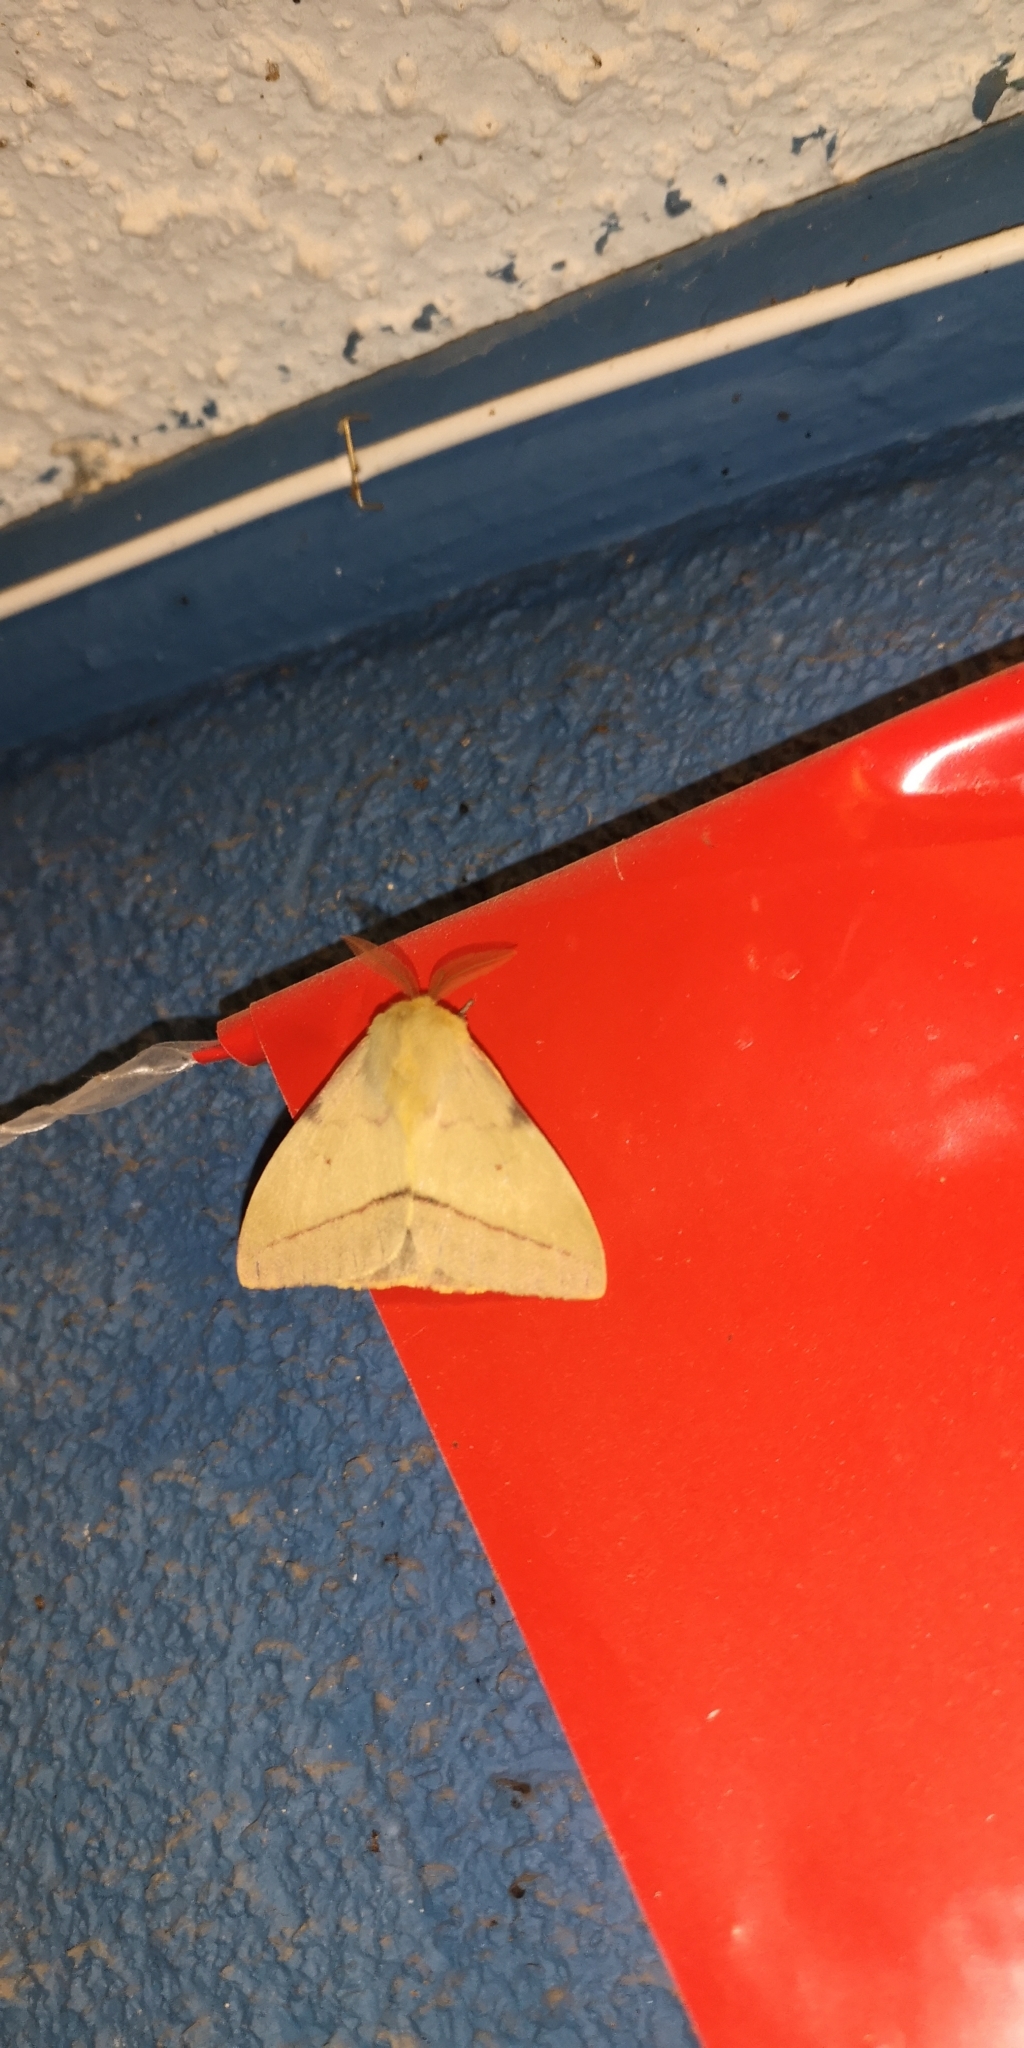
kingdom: Animalia
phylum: Arthropoda
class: Insecta
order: Lepidoptera
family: Saturniidae
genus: Adetomeris
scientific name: Adetomeris erythrops
